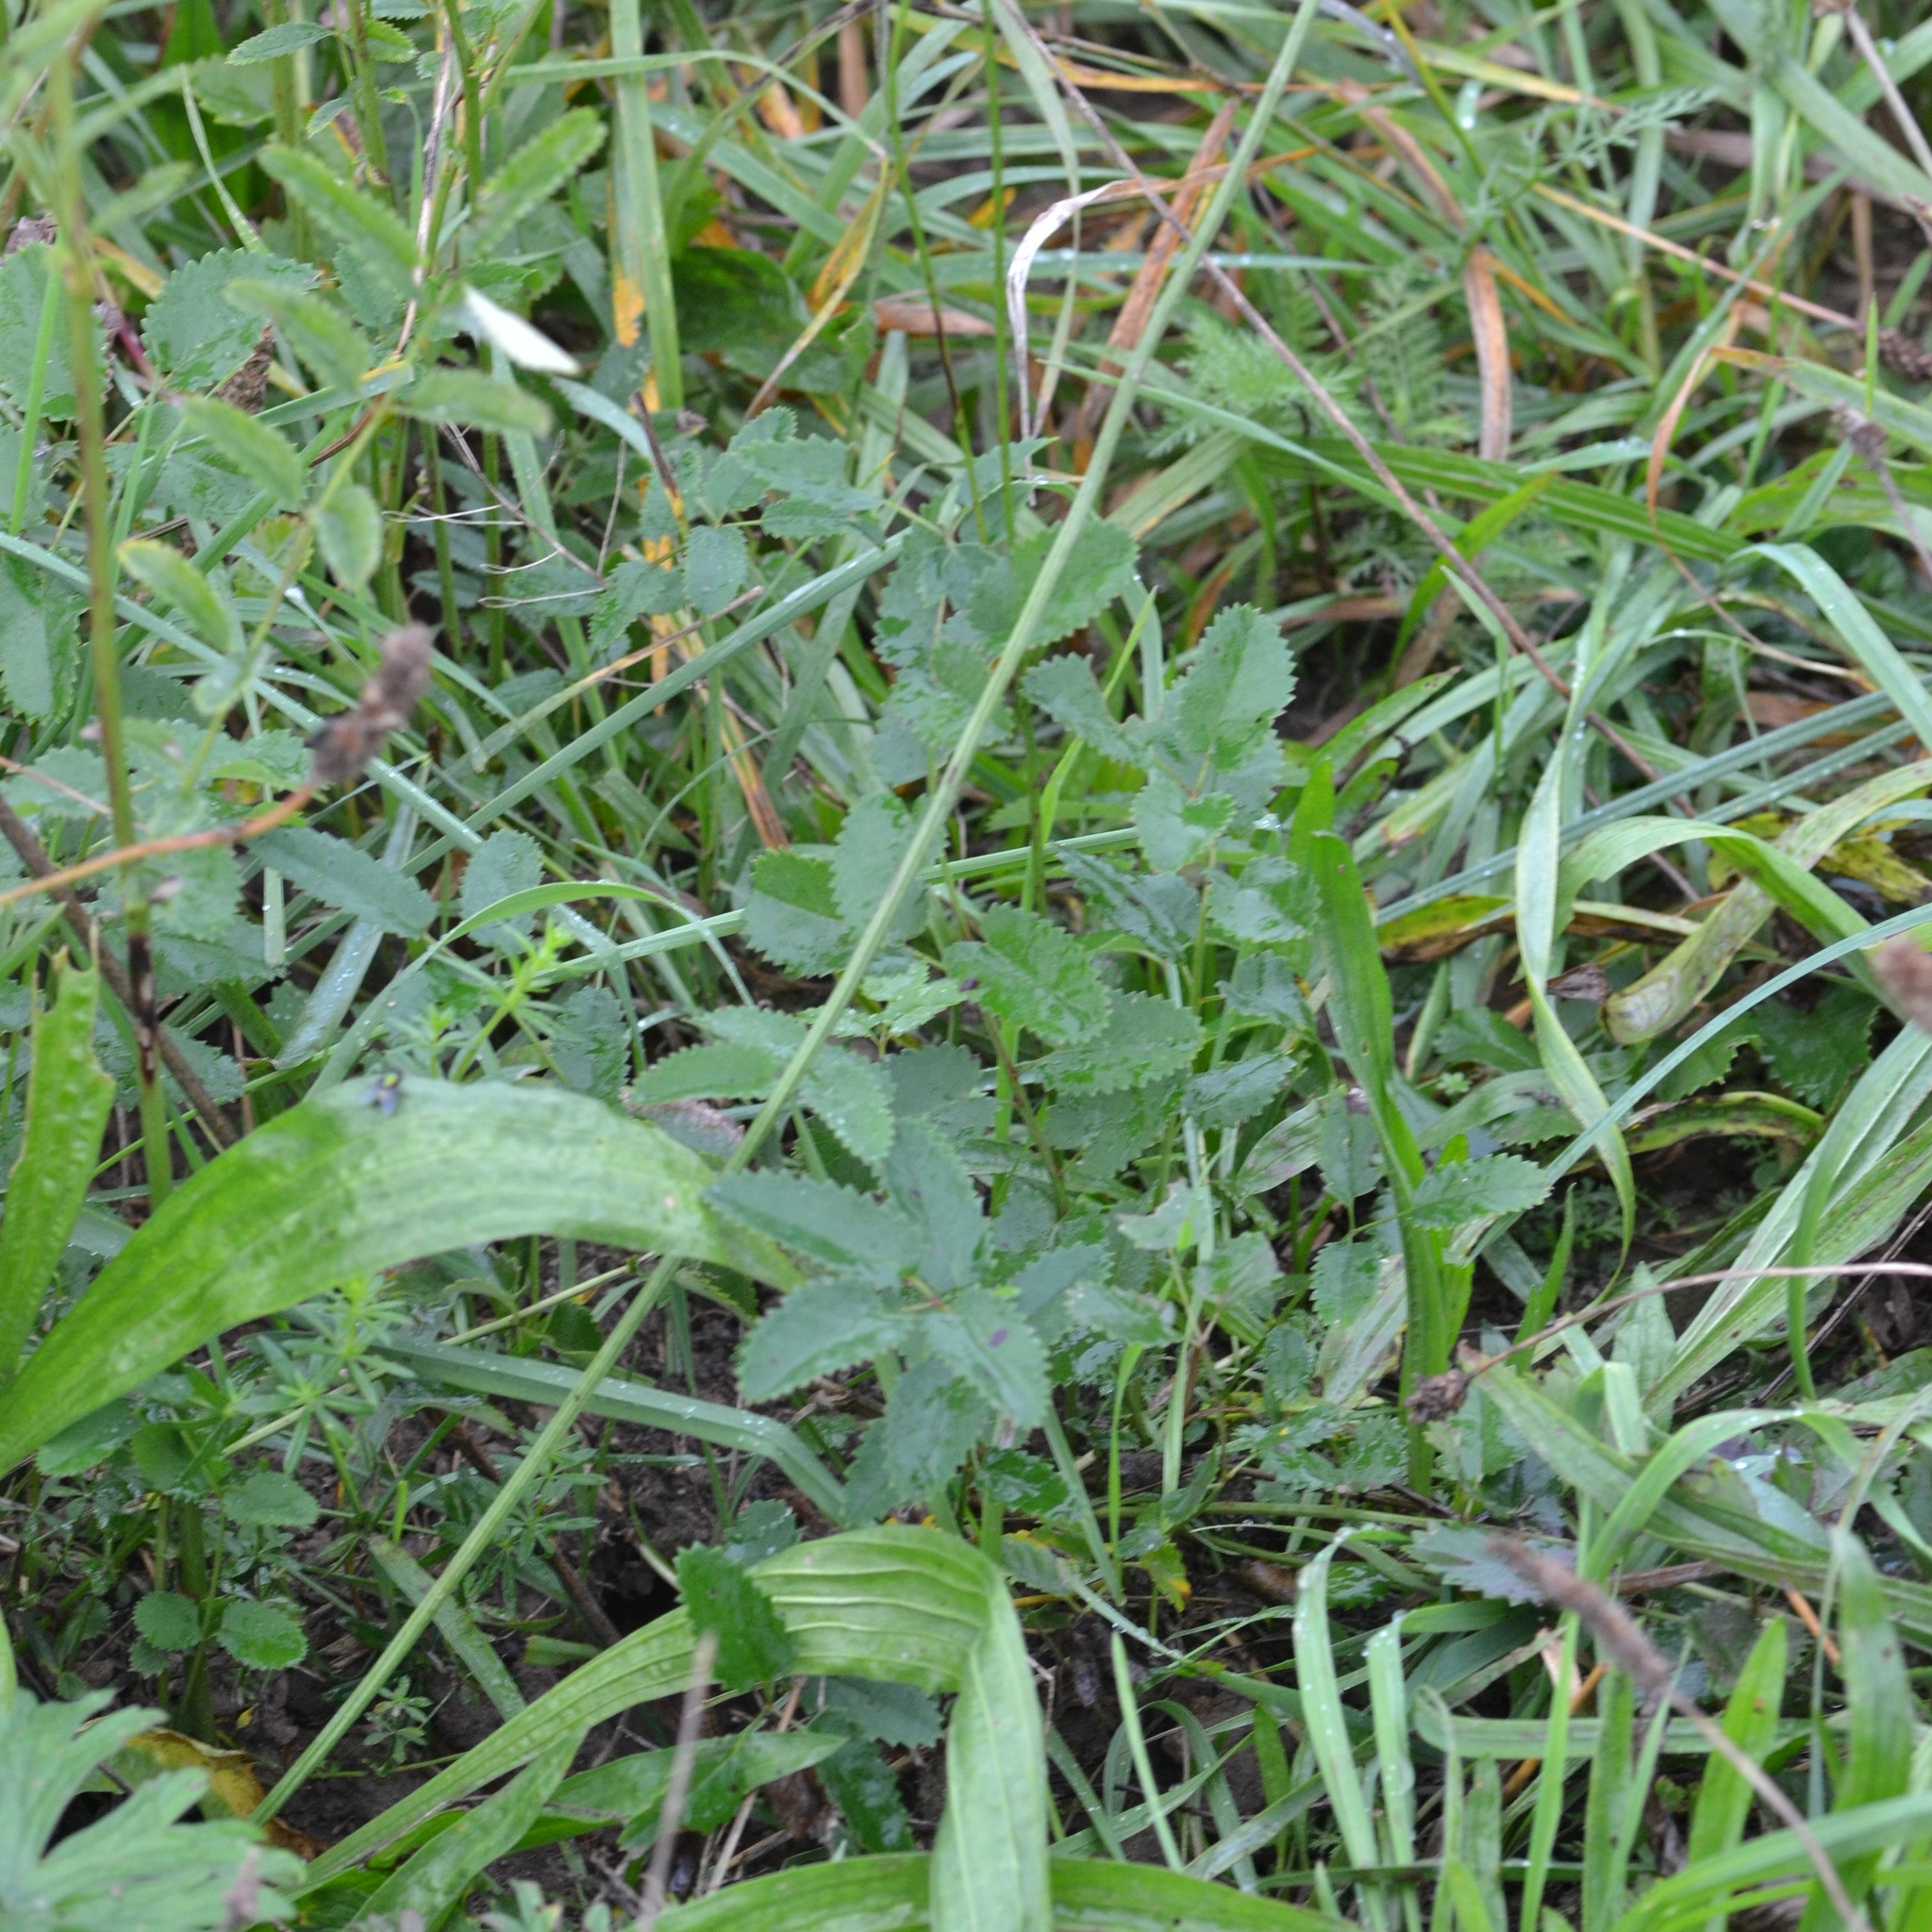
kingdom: Plantae
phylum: Tracheophyta
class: Magnoliopsida
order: Rosales
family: Rosaceae
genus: Sanguisorba
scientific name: Sanguisorba officinalis
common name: Great burnet
